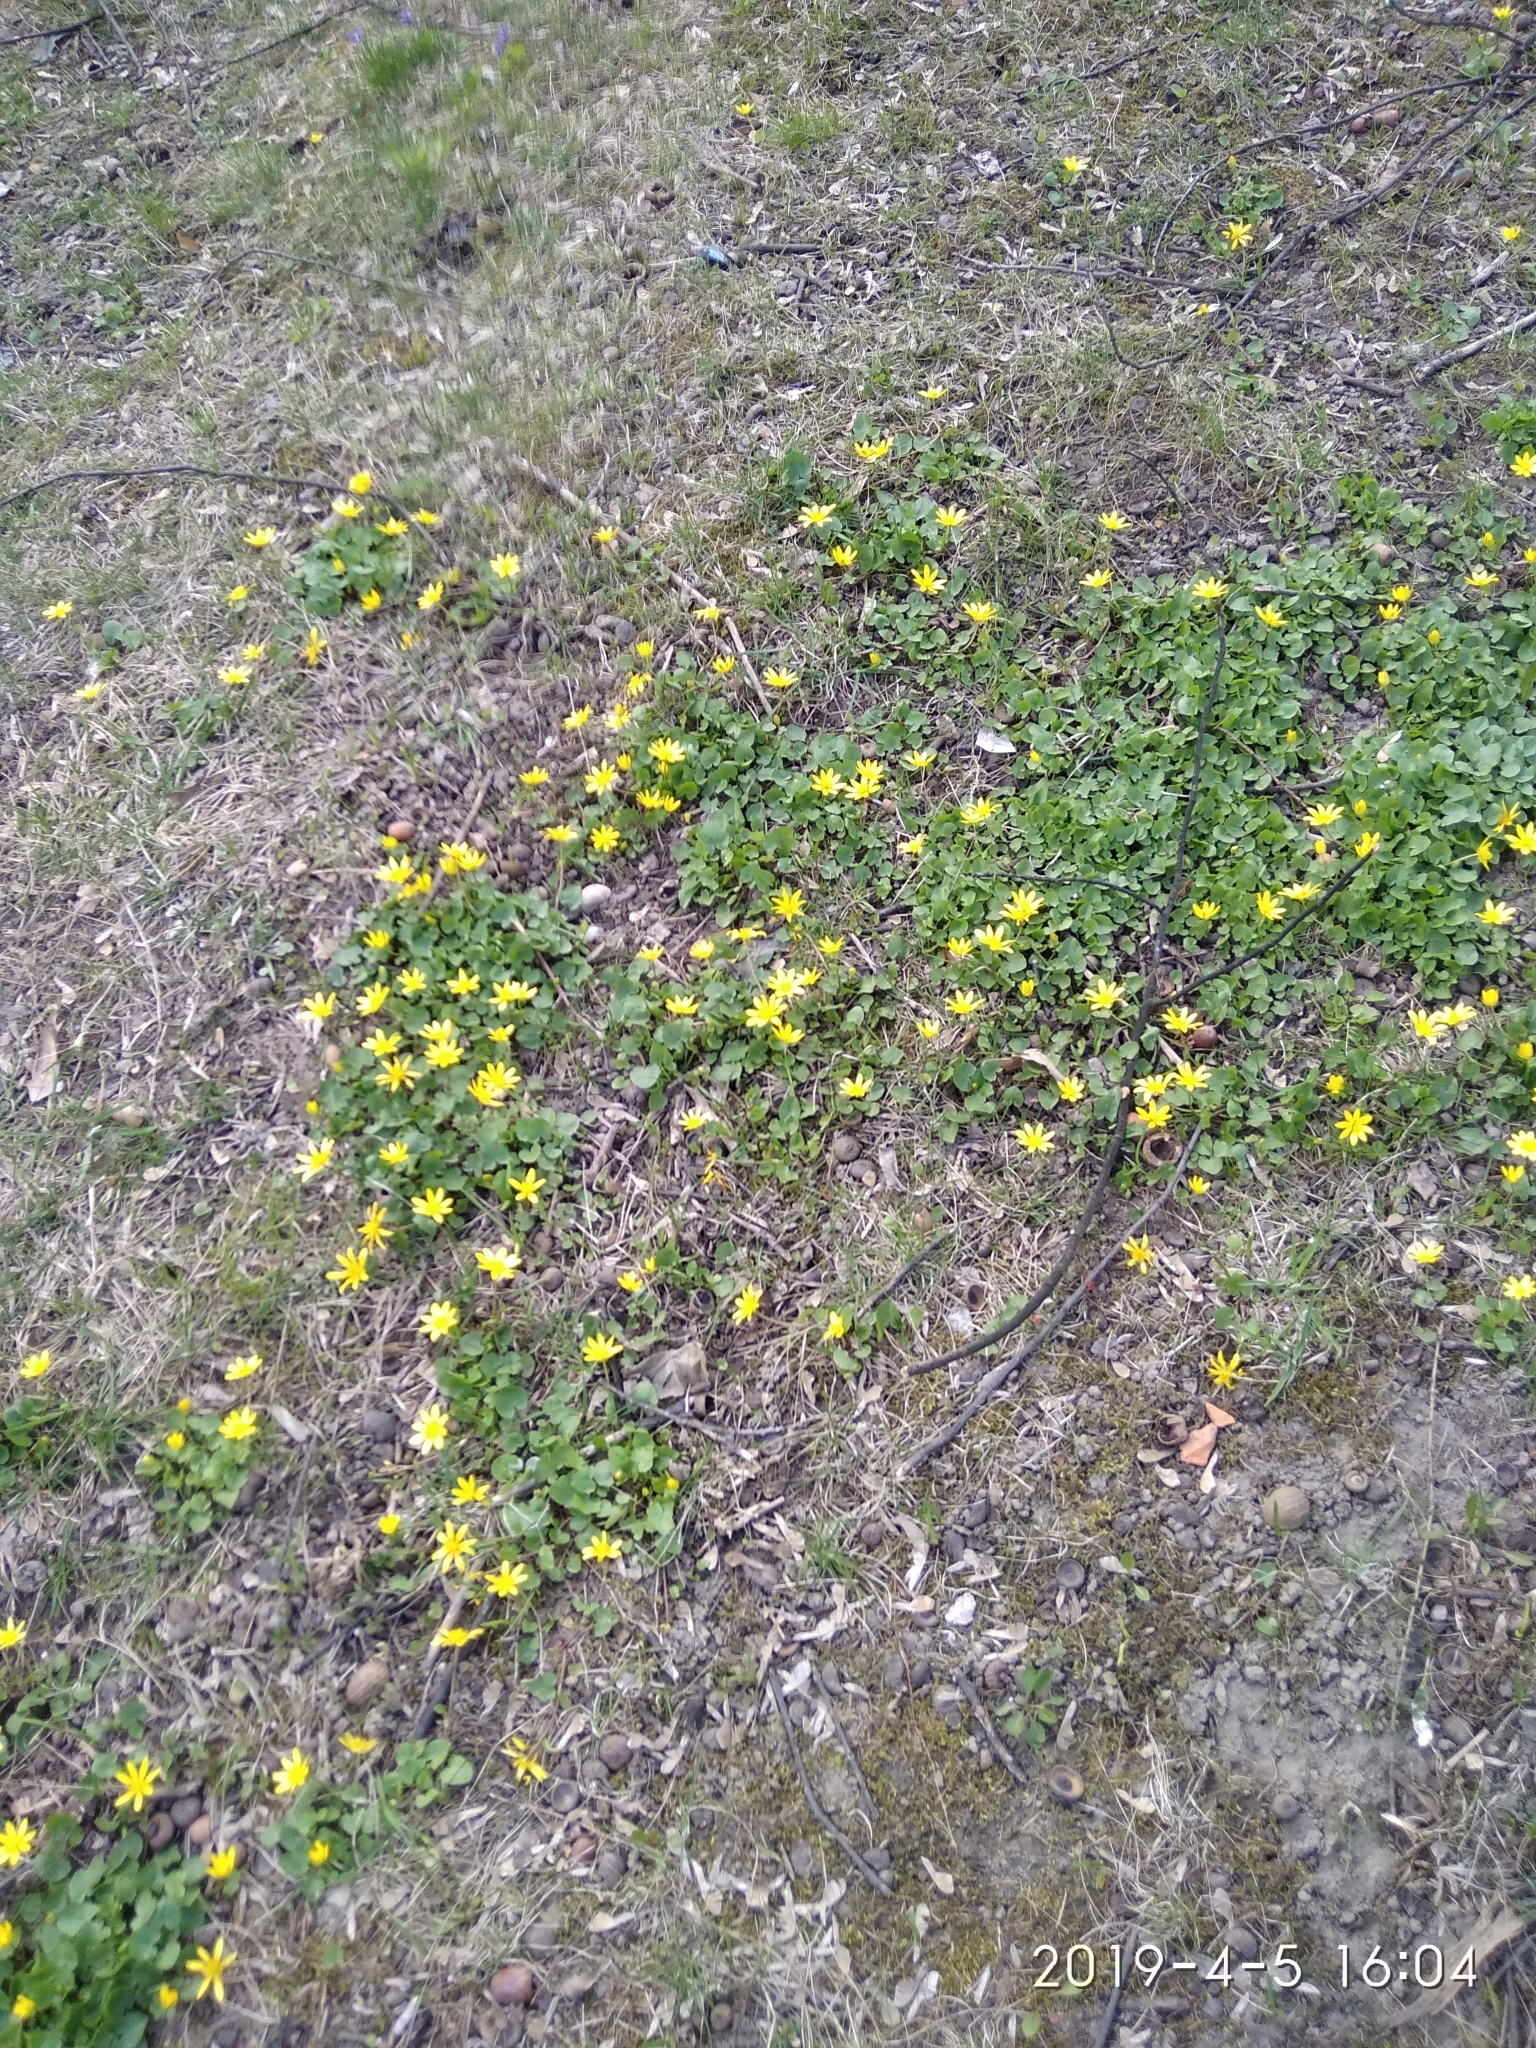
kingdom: Plantae
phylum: Tracheophyta
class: Magnoliopsida
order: Ranunculales
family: Ranunculaceae
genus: Ficaria
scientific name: Ficaria verna
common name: Lesser celandine
